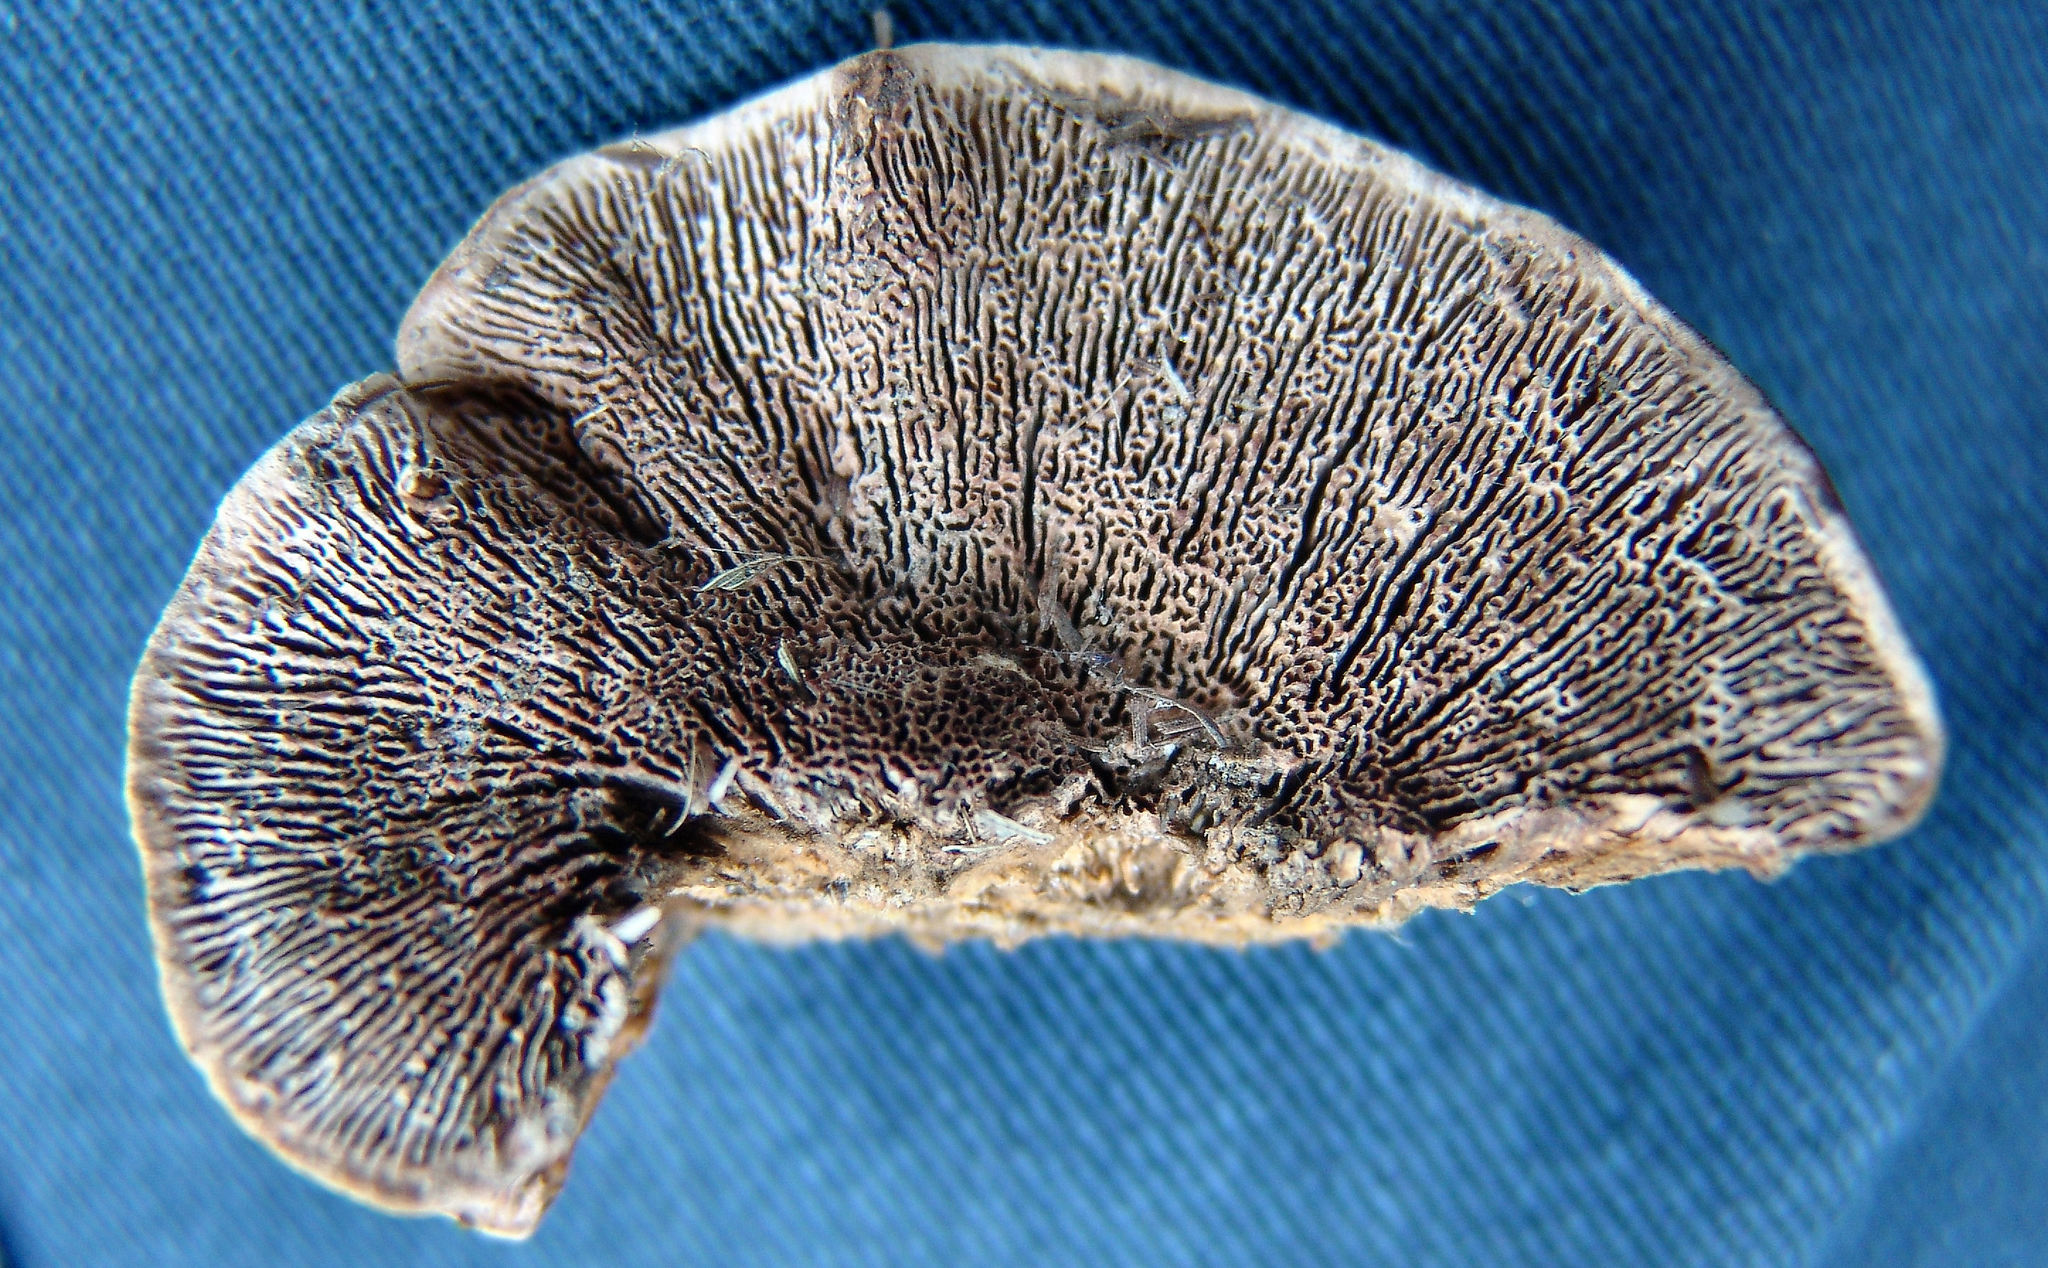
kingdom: Fungi
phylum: Basidiomycota
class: Agaricomycetes
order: Polyporales
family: Polyporaceae
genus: Daedaleopsis
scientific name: Daedaleopsis confragosa
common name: Blushing bracket
